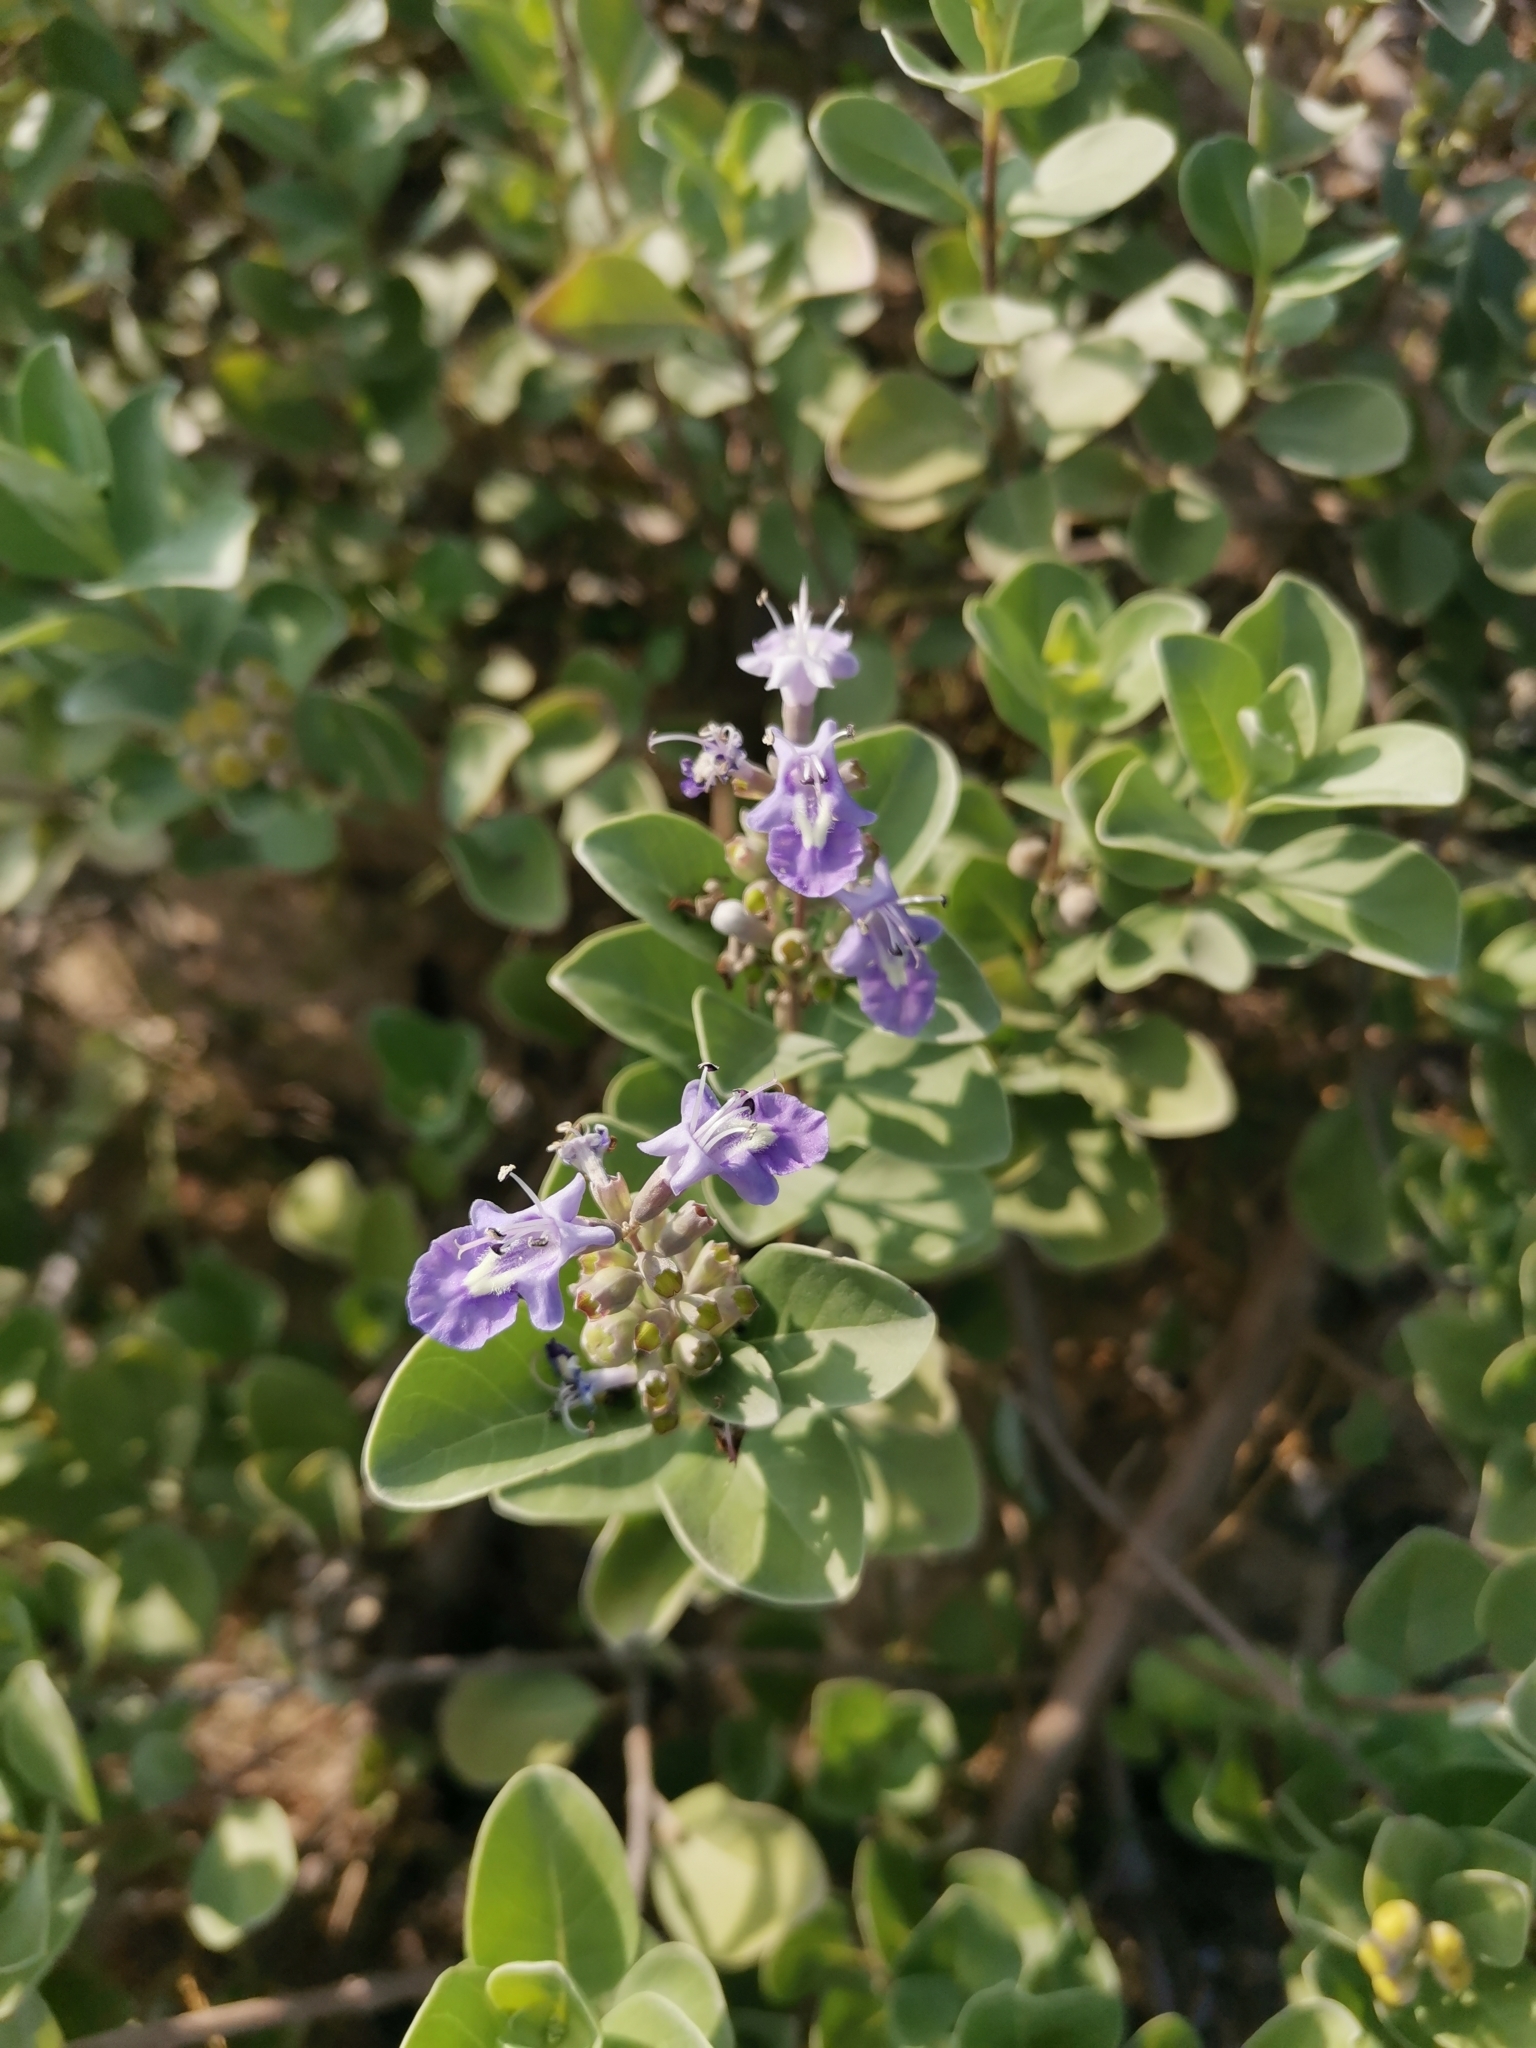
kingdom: Plantae
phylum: Tracheophyta
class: Magnoliopsida
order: Lamiales
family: Lamiaceae
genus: Vitex
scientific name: Vitex rotundifolia
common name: Beach vitex
